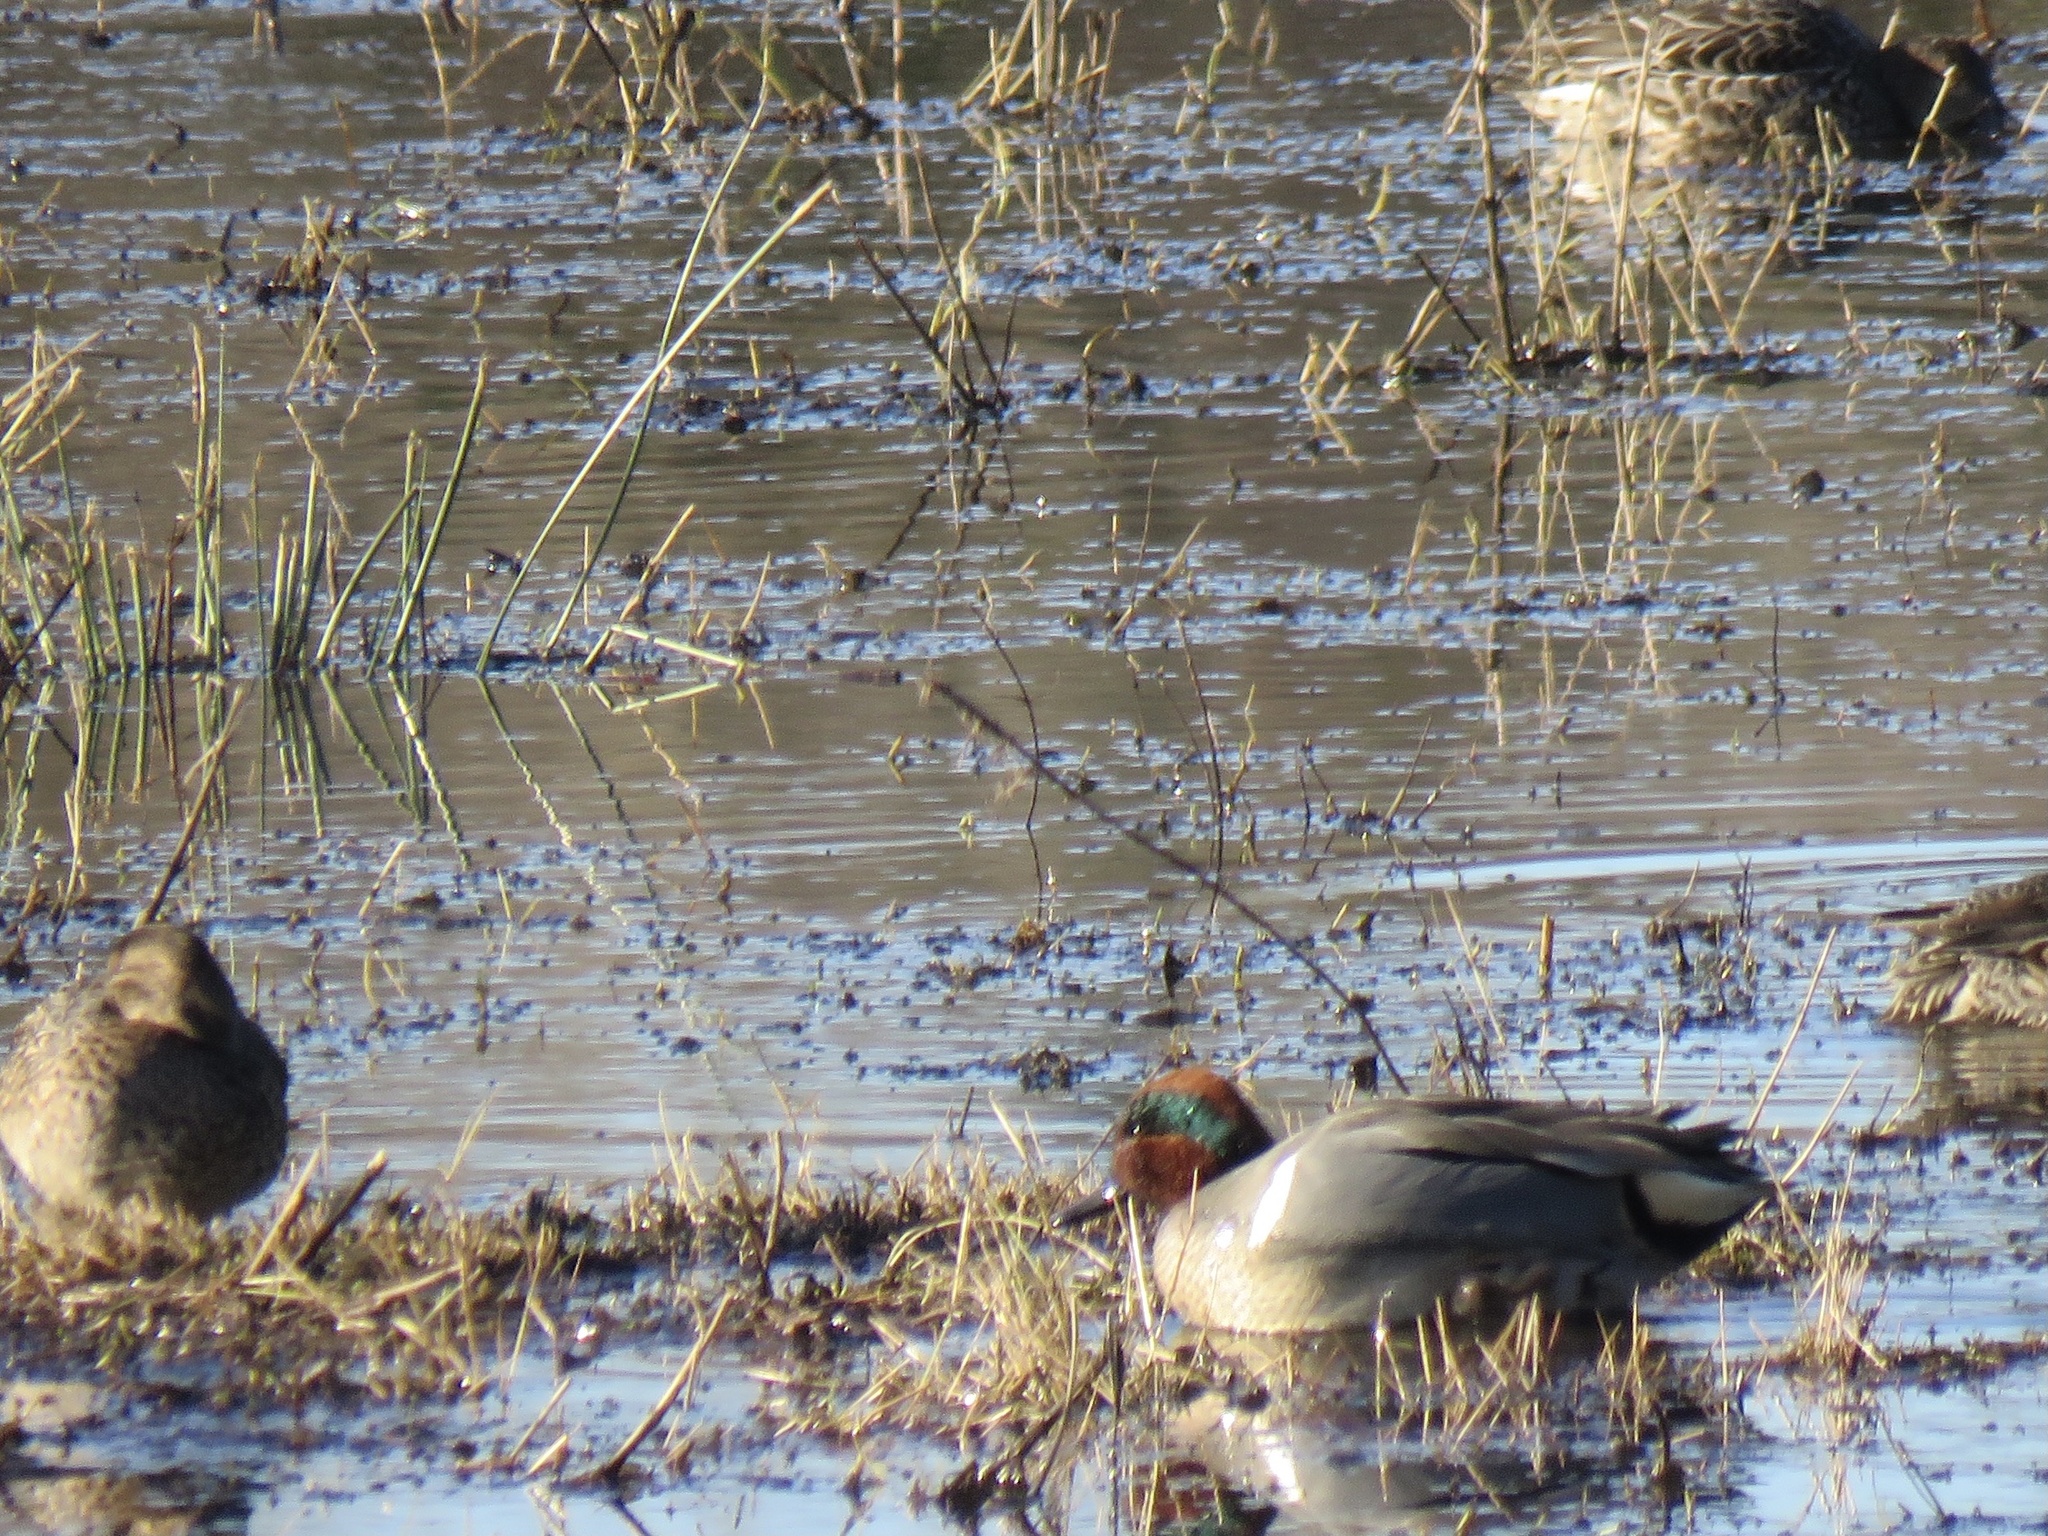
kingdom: Animalia
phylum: Chordata
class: Aves
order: Anseriformes
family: Anatidae
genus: Anas
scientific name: Anas crecca
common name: Eurasian teal
